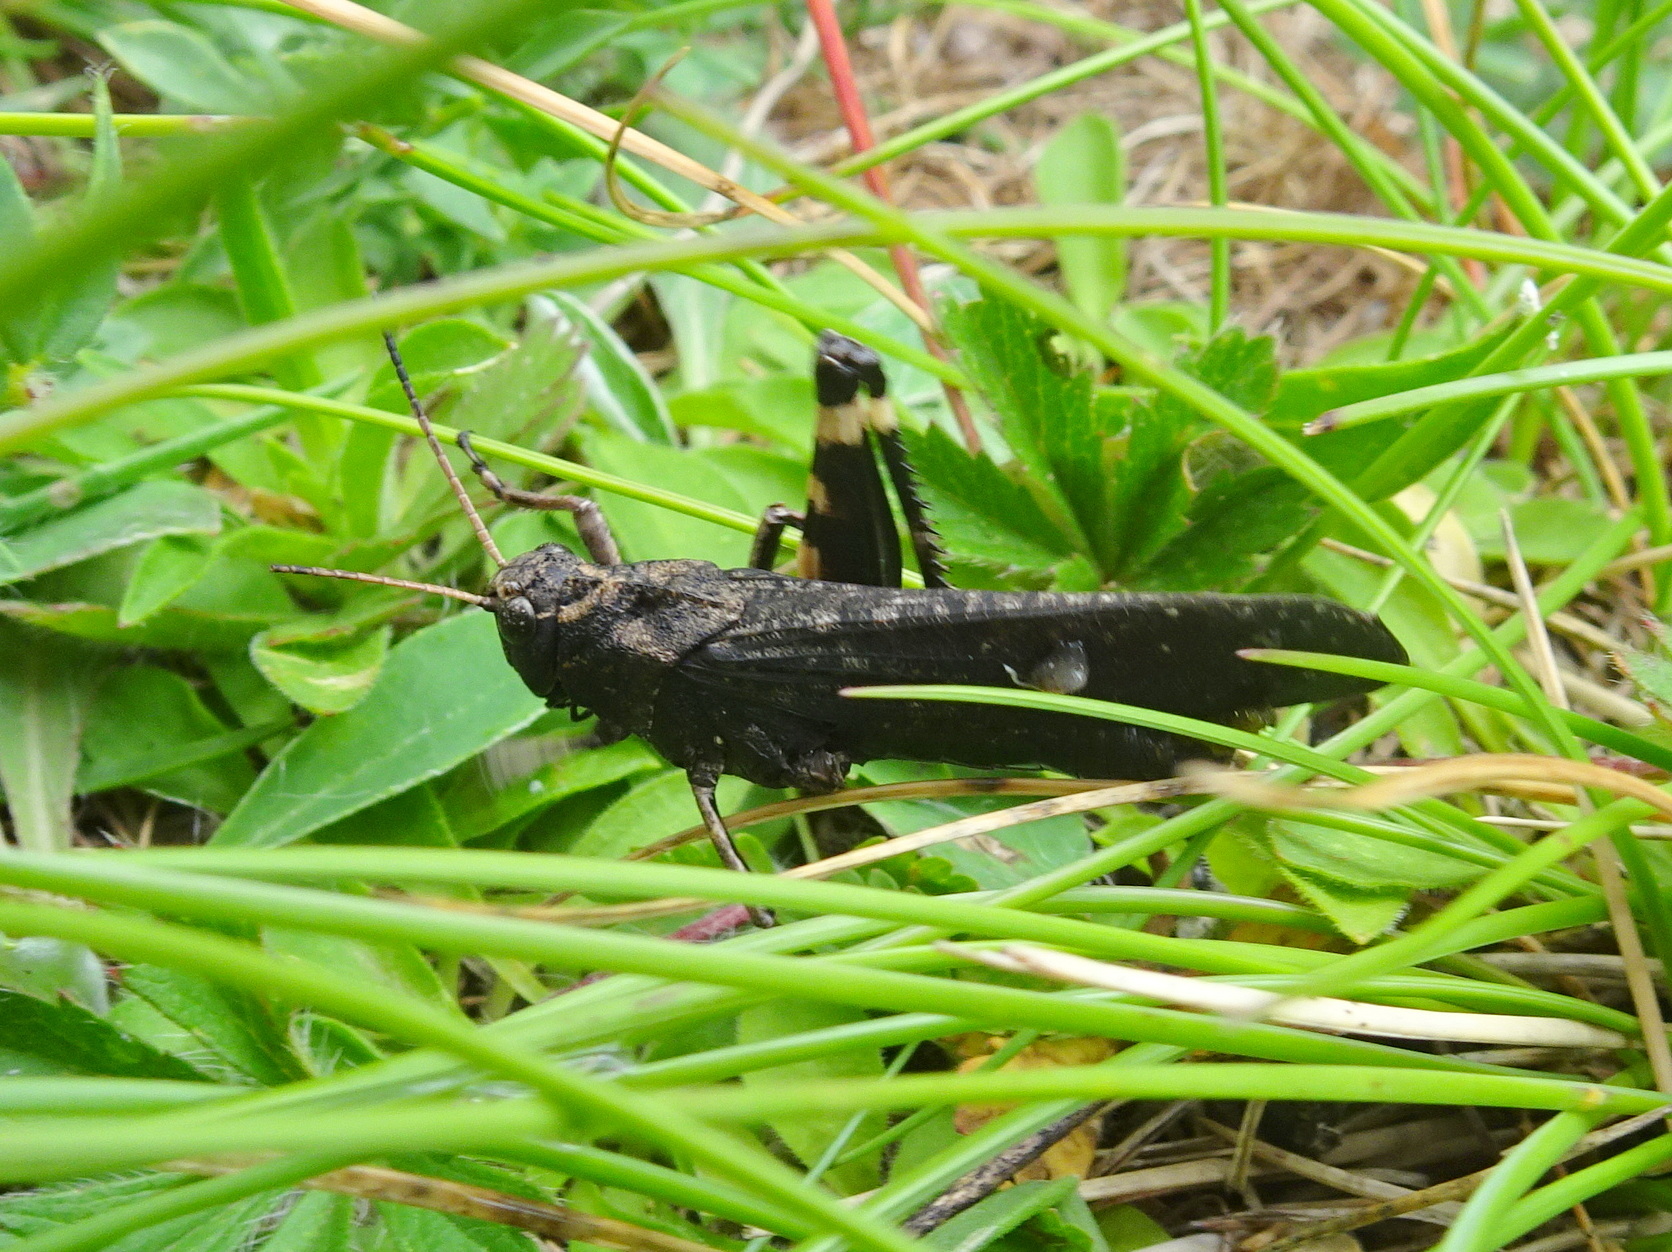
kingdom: Animalia
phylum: Arthropoda
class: Insecta
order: Orthoptera
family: Acrididae
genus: Psophus
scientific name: Psophus stridulus
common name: Rattle grasshopper
